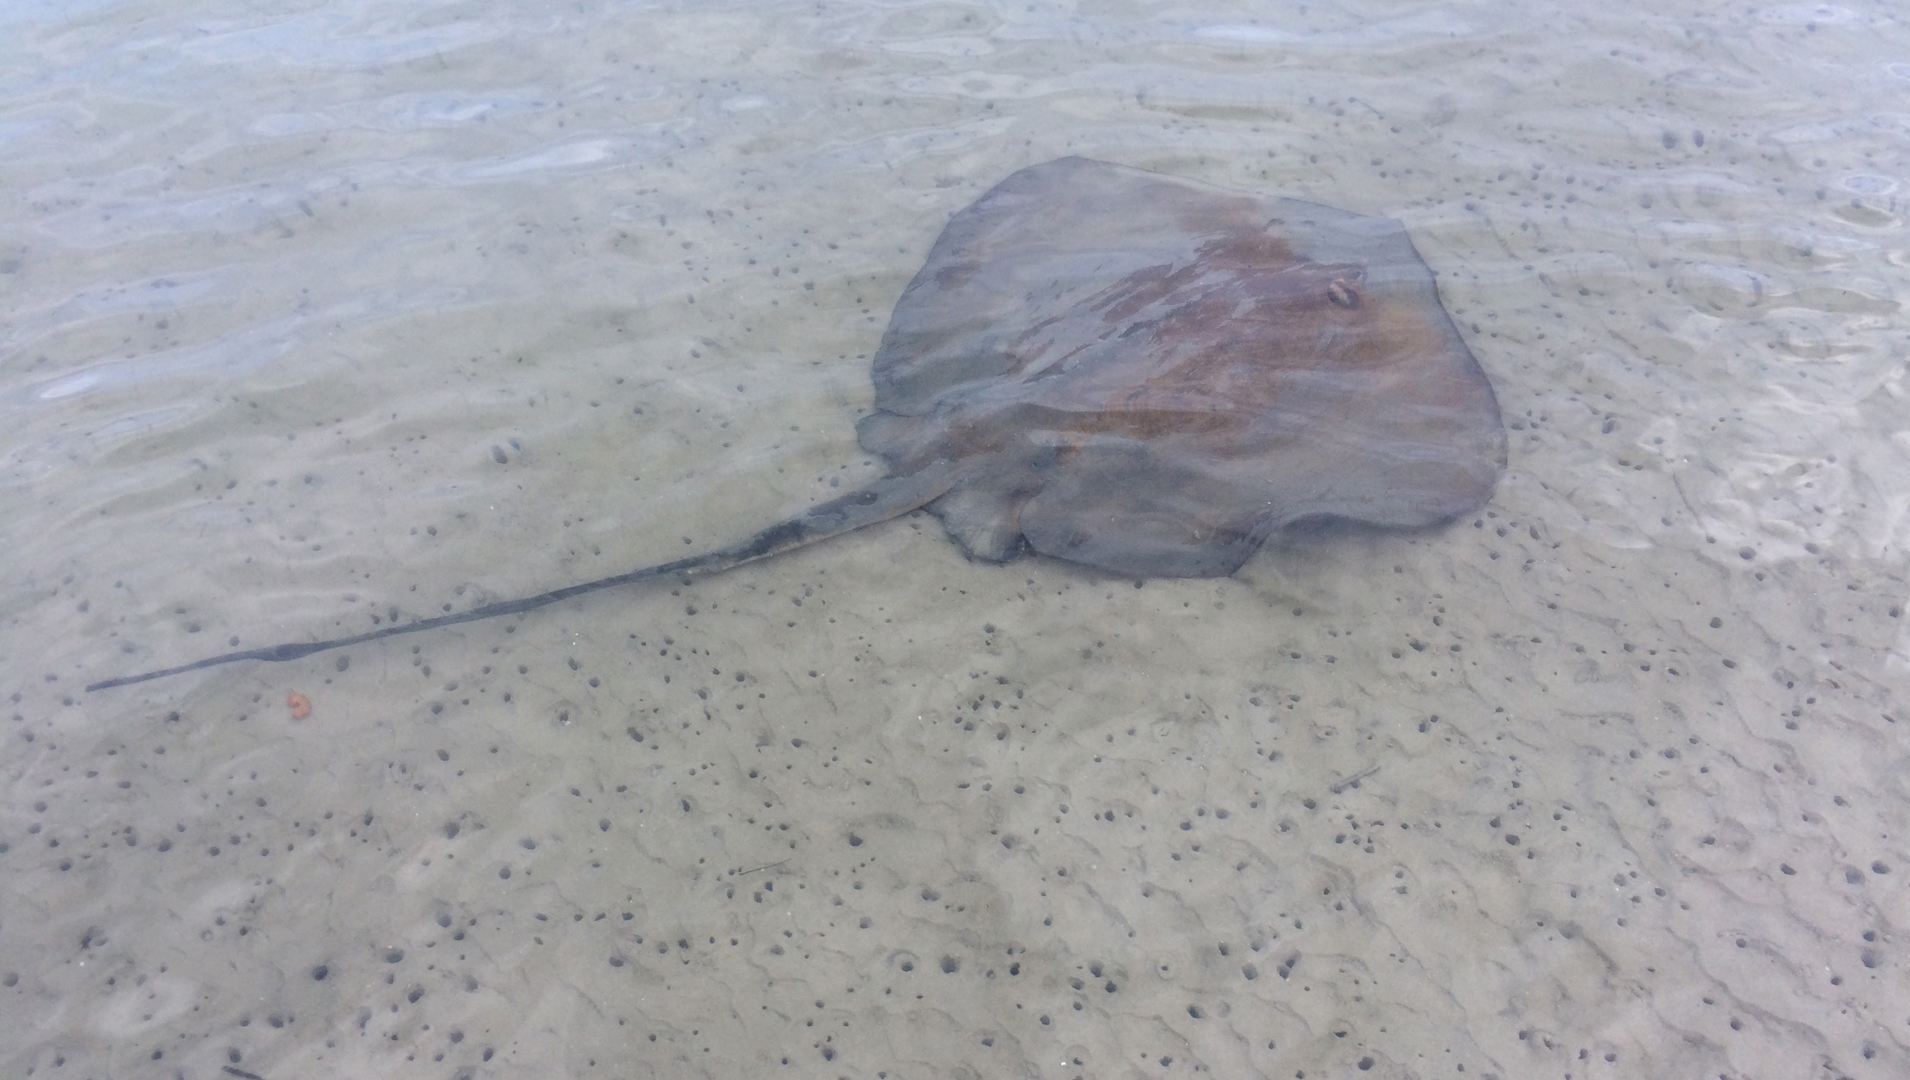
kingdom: Animalia
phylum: Chordata
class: Elasmobranchii
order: Myliobatiformes
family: Dasyatidae
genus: Hemitrygon
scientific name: Hemitrygon fluviorum
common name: Estuary stingray
